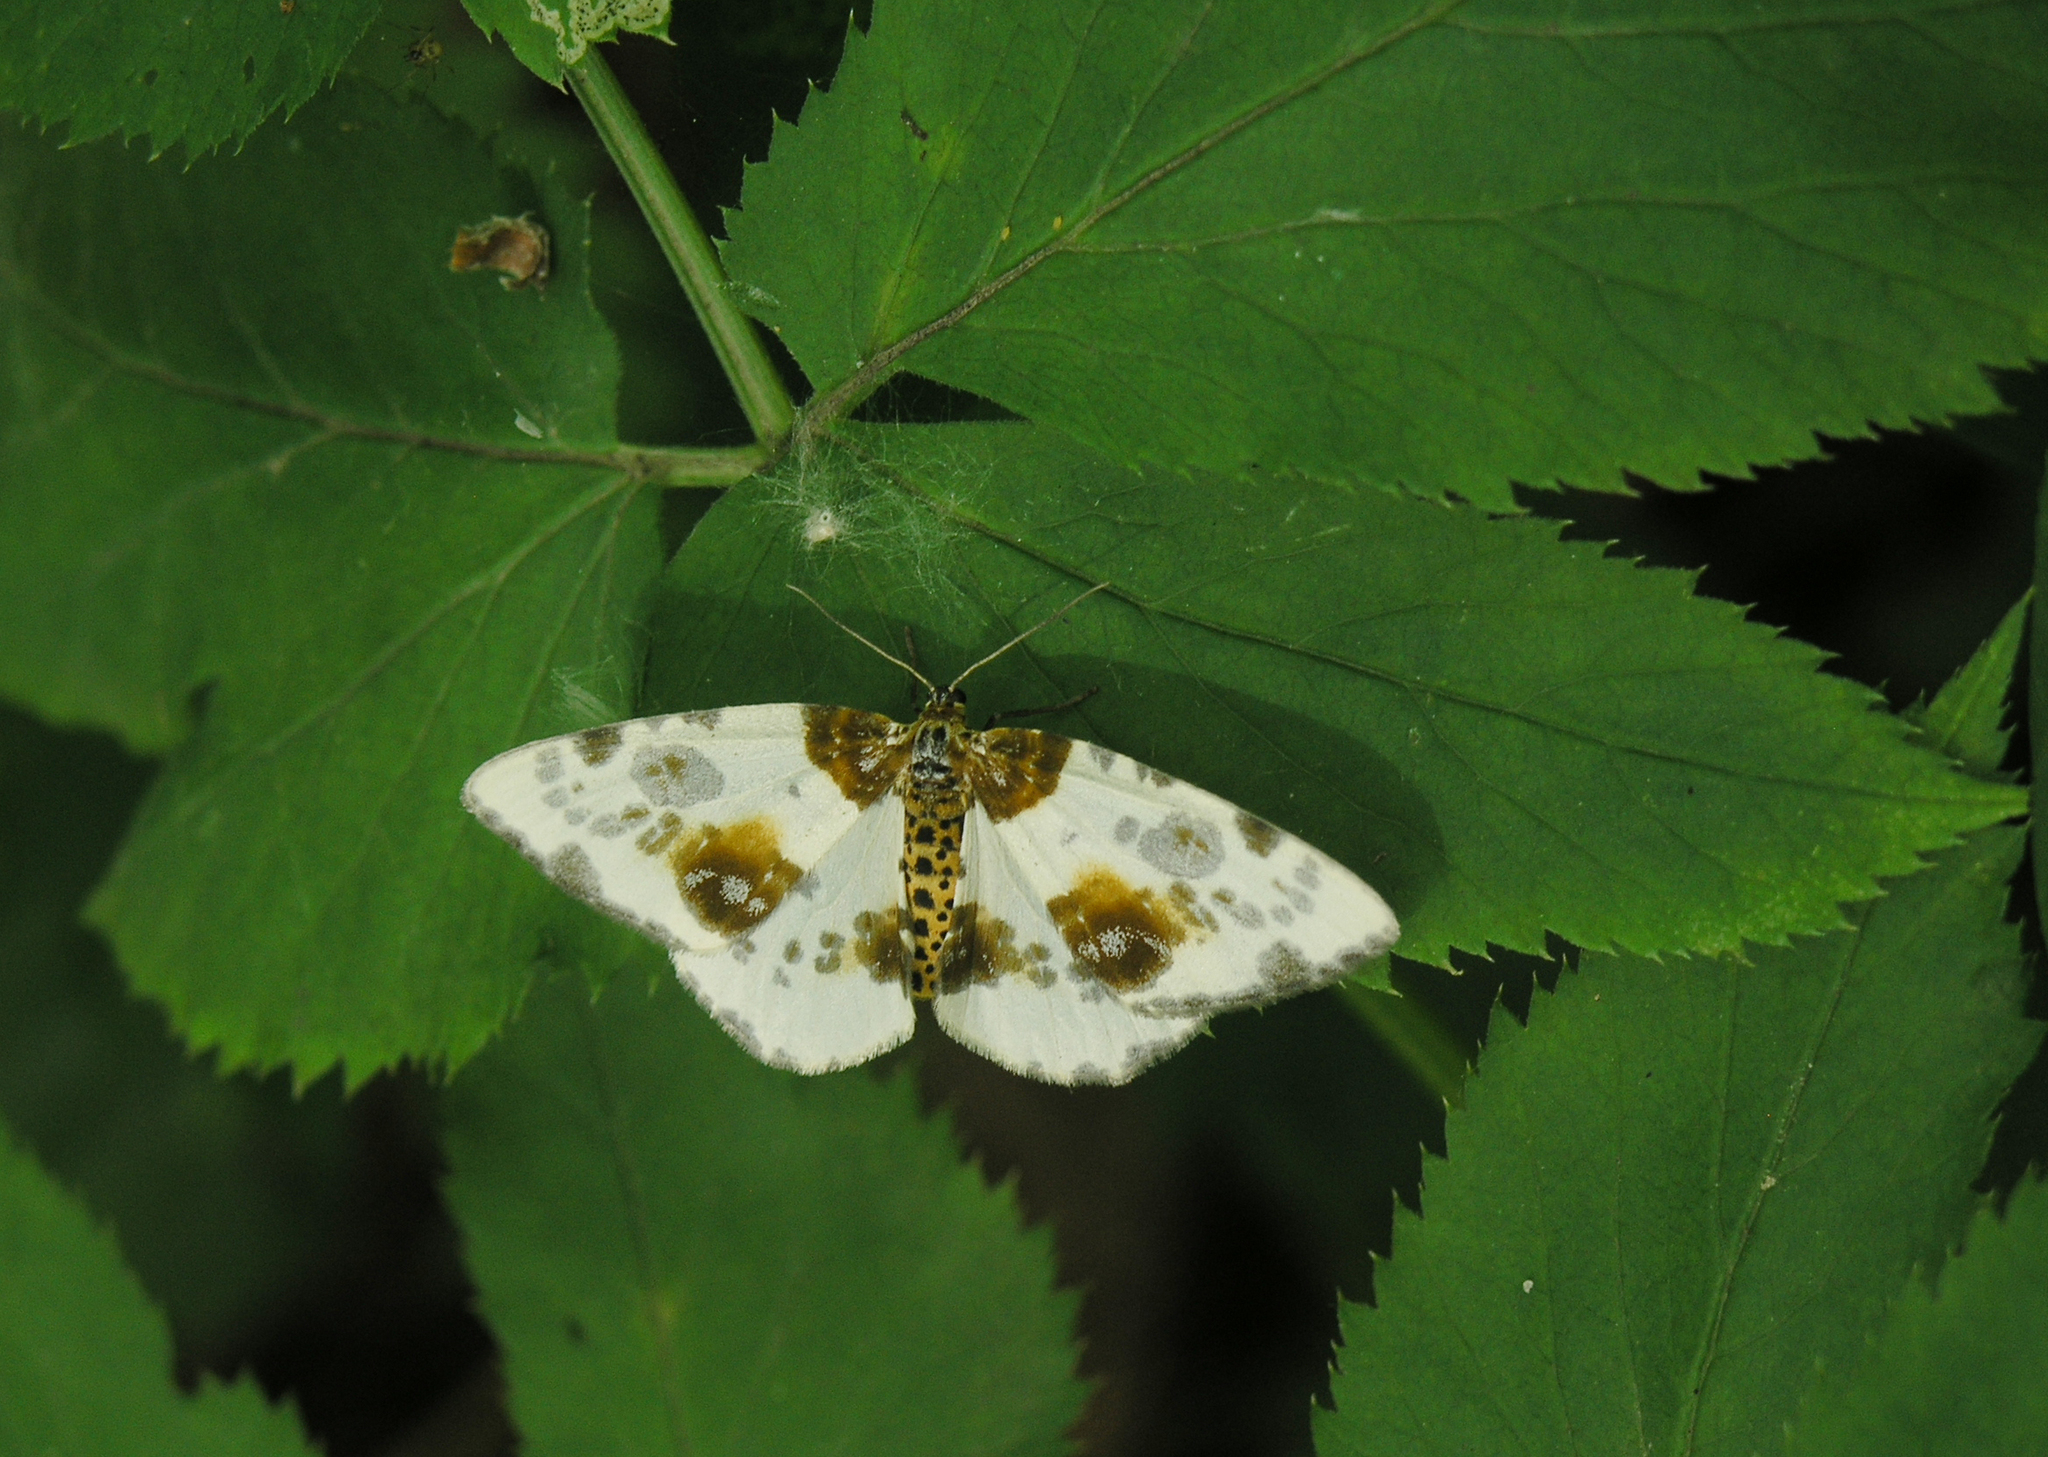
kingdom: Animalia
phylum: Arthropoda
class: Insecta
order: Lepidoptera
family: Geometridae
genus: Abraxas
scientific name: Abraxas sylvata
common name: Clouded magpie
